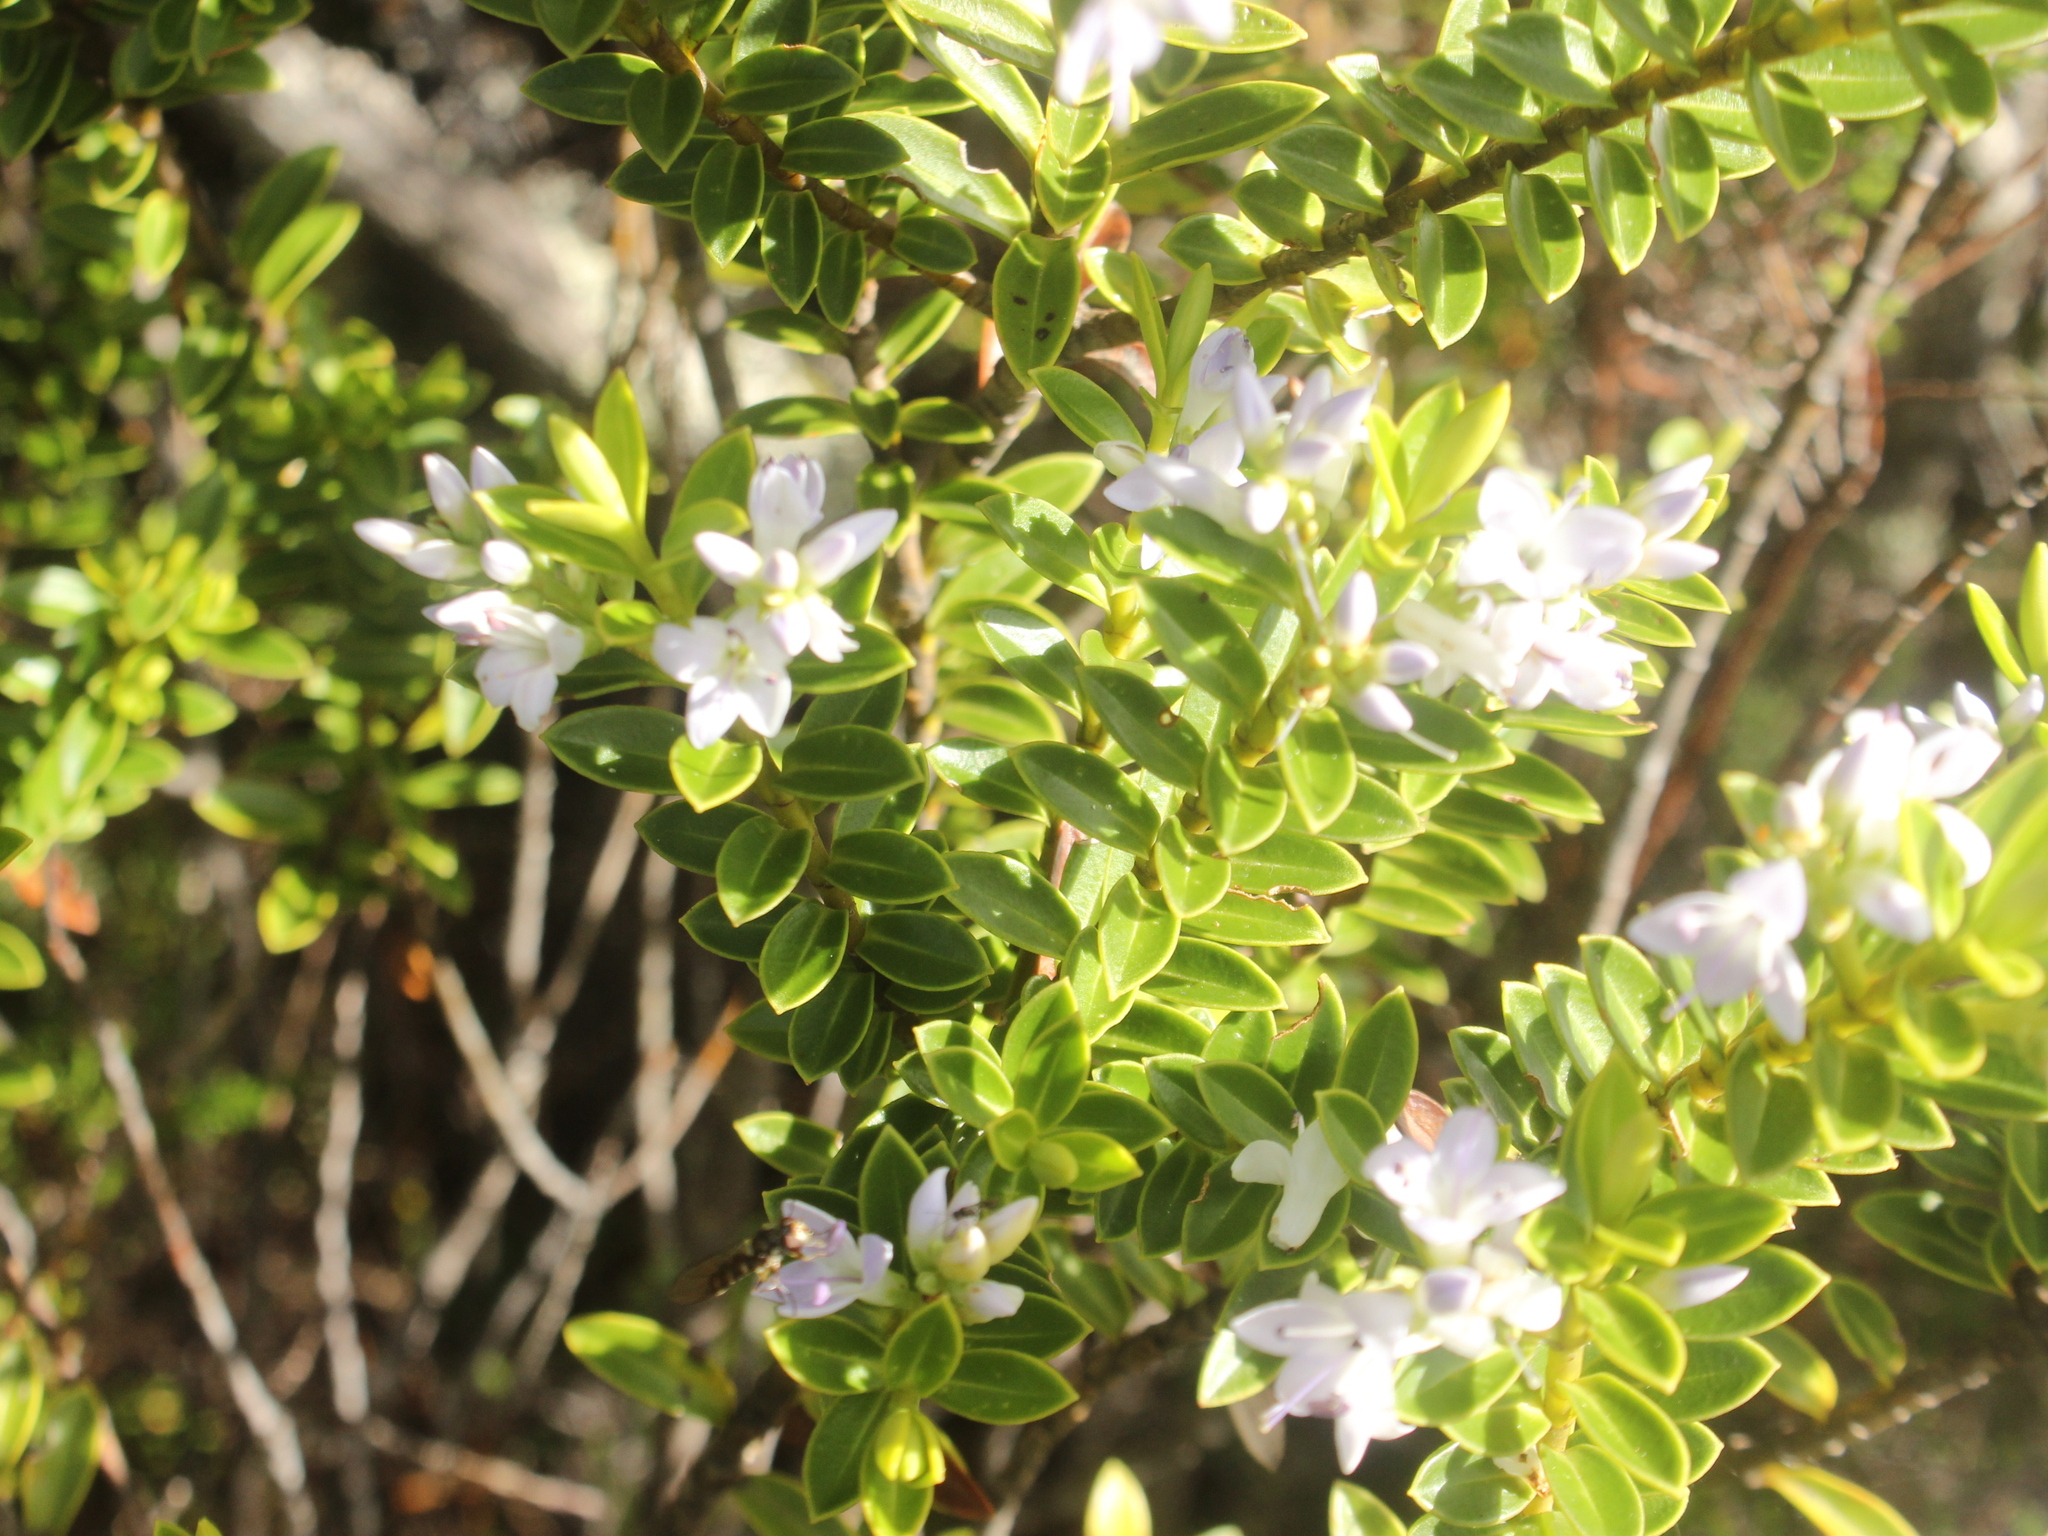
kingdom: Plantae
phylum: Tracheophyta
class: Magnoliopsida
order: Lamiales
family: Plantaginaceae
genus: Veronica
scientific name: Veronica venustula
